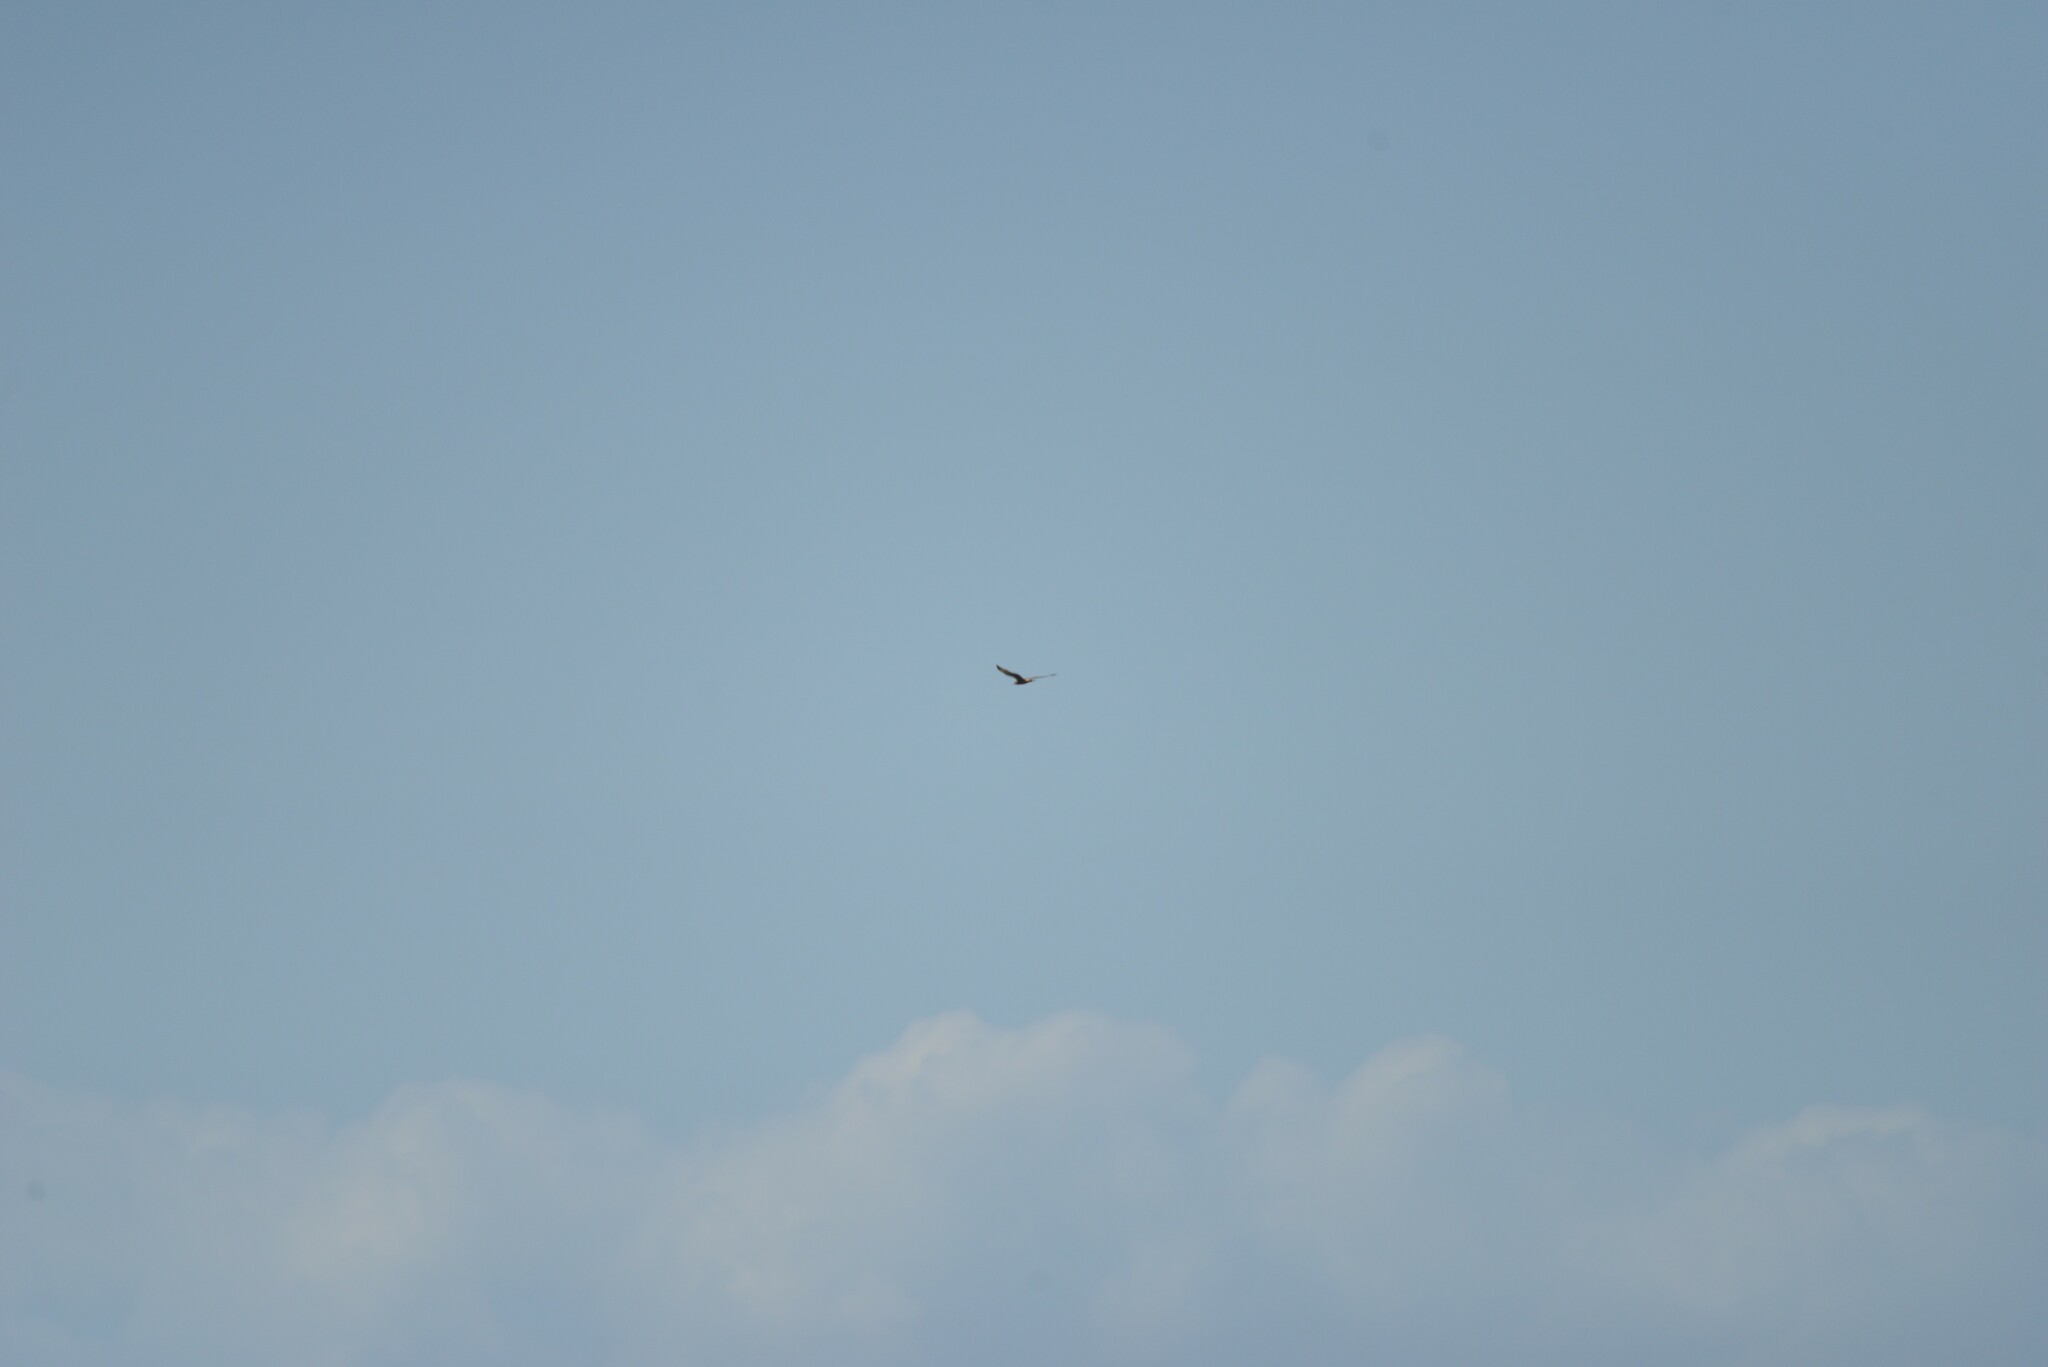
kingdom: Animalia
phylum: Chordata
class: Aves
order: Accipitriformes
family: Accipitridae
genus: Circus
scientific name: Circus approximans
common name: Swamp harrier
